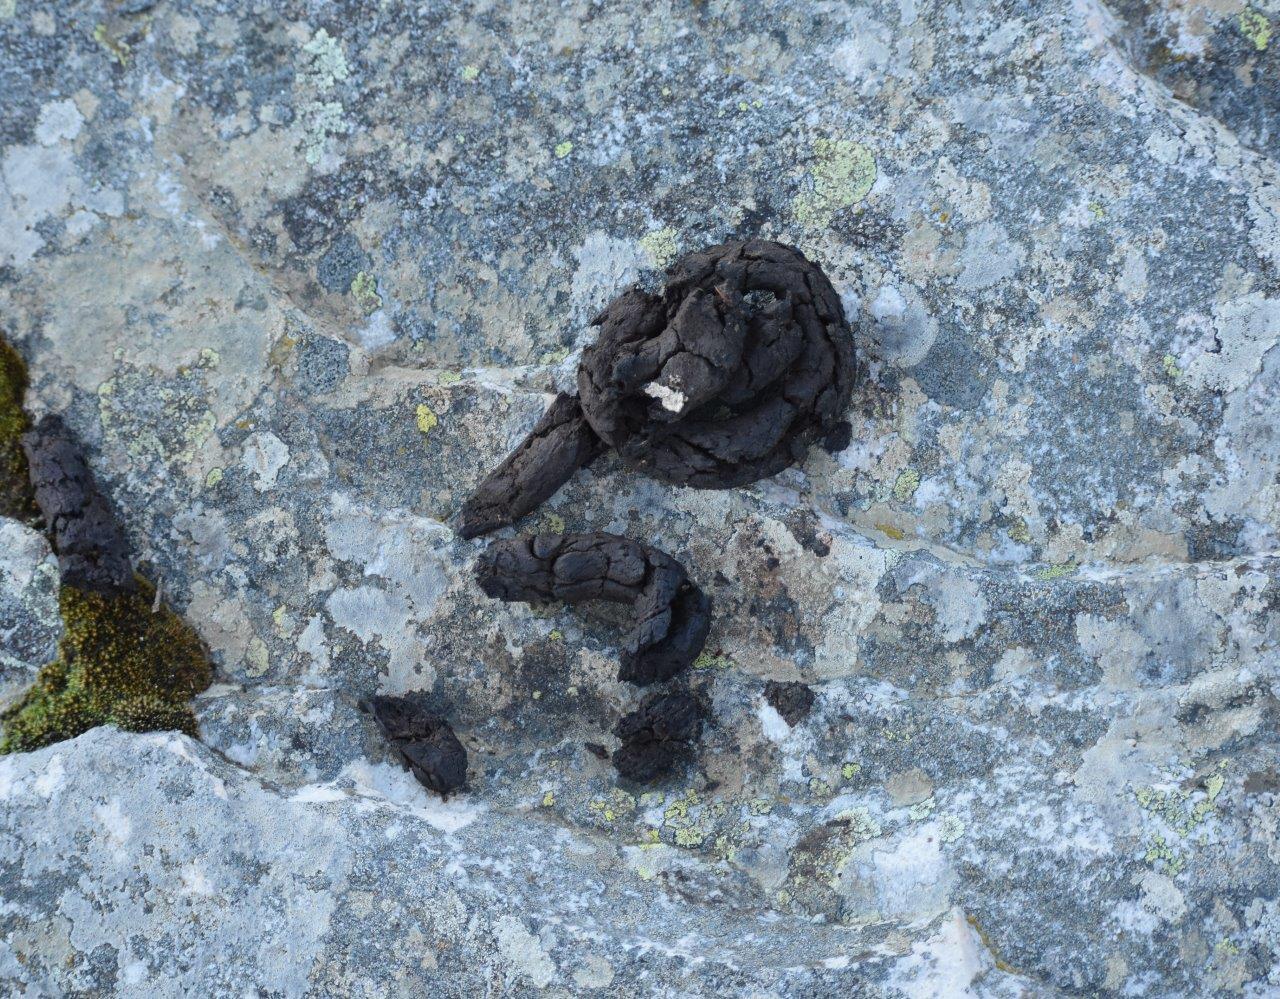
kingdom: Animalia
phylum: Chordata
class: Mammalia
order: Primates
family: Cercopithecidae
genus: Papio
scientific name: Papio ursinus
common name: Chacma baboon
